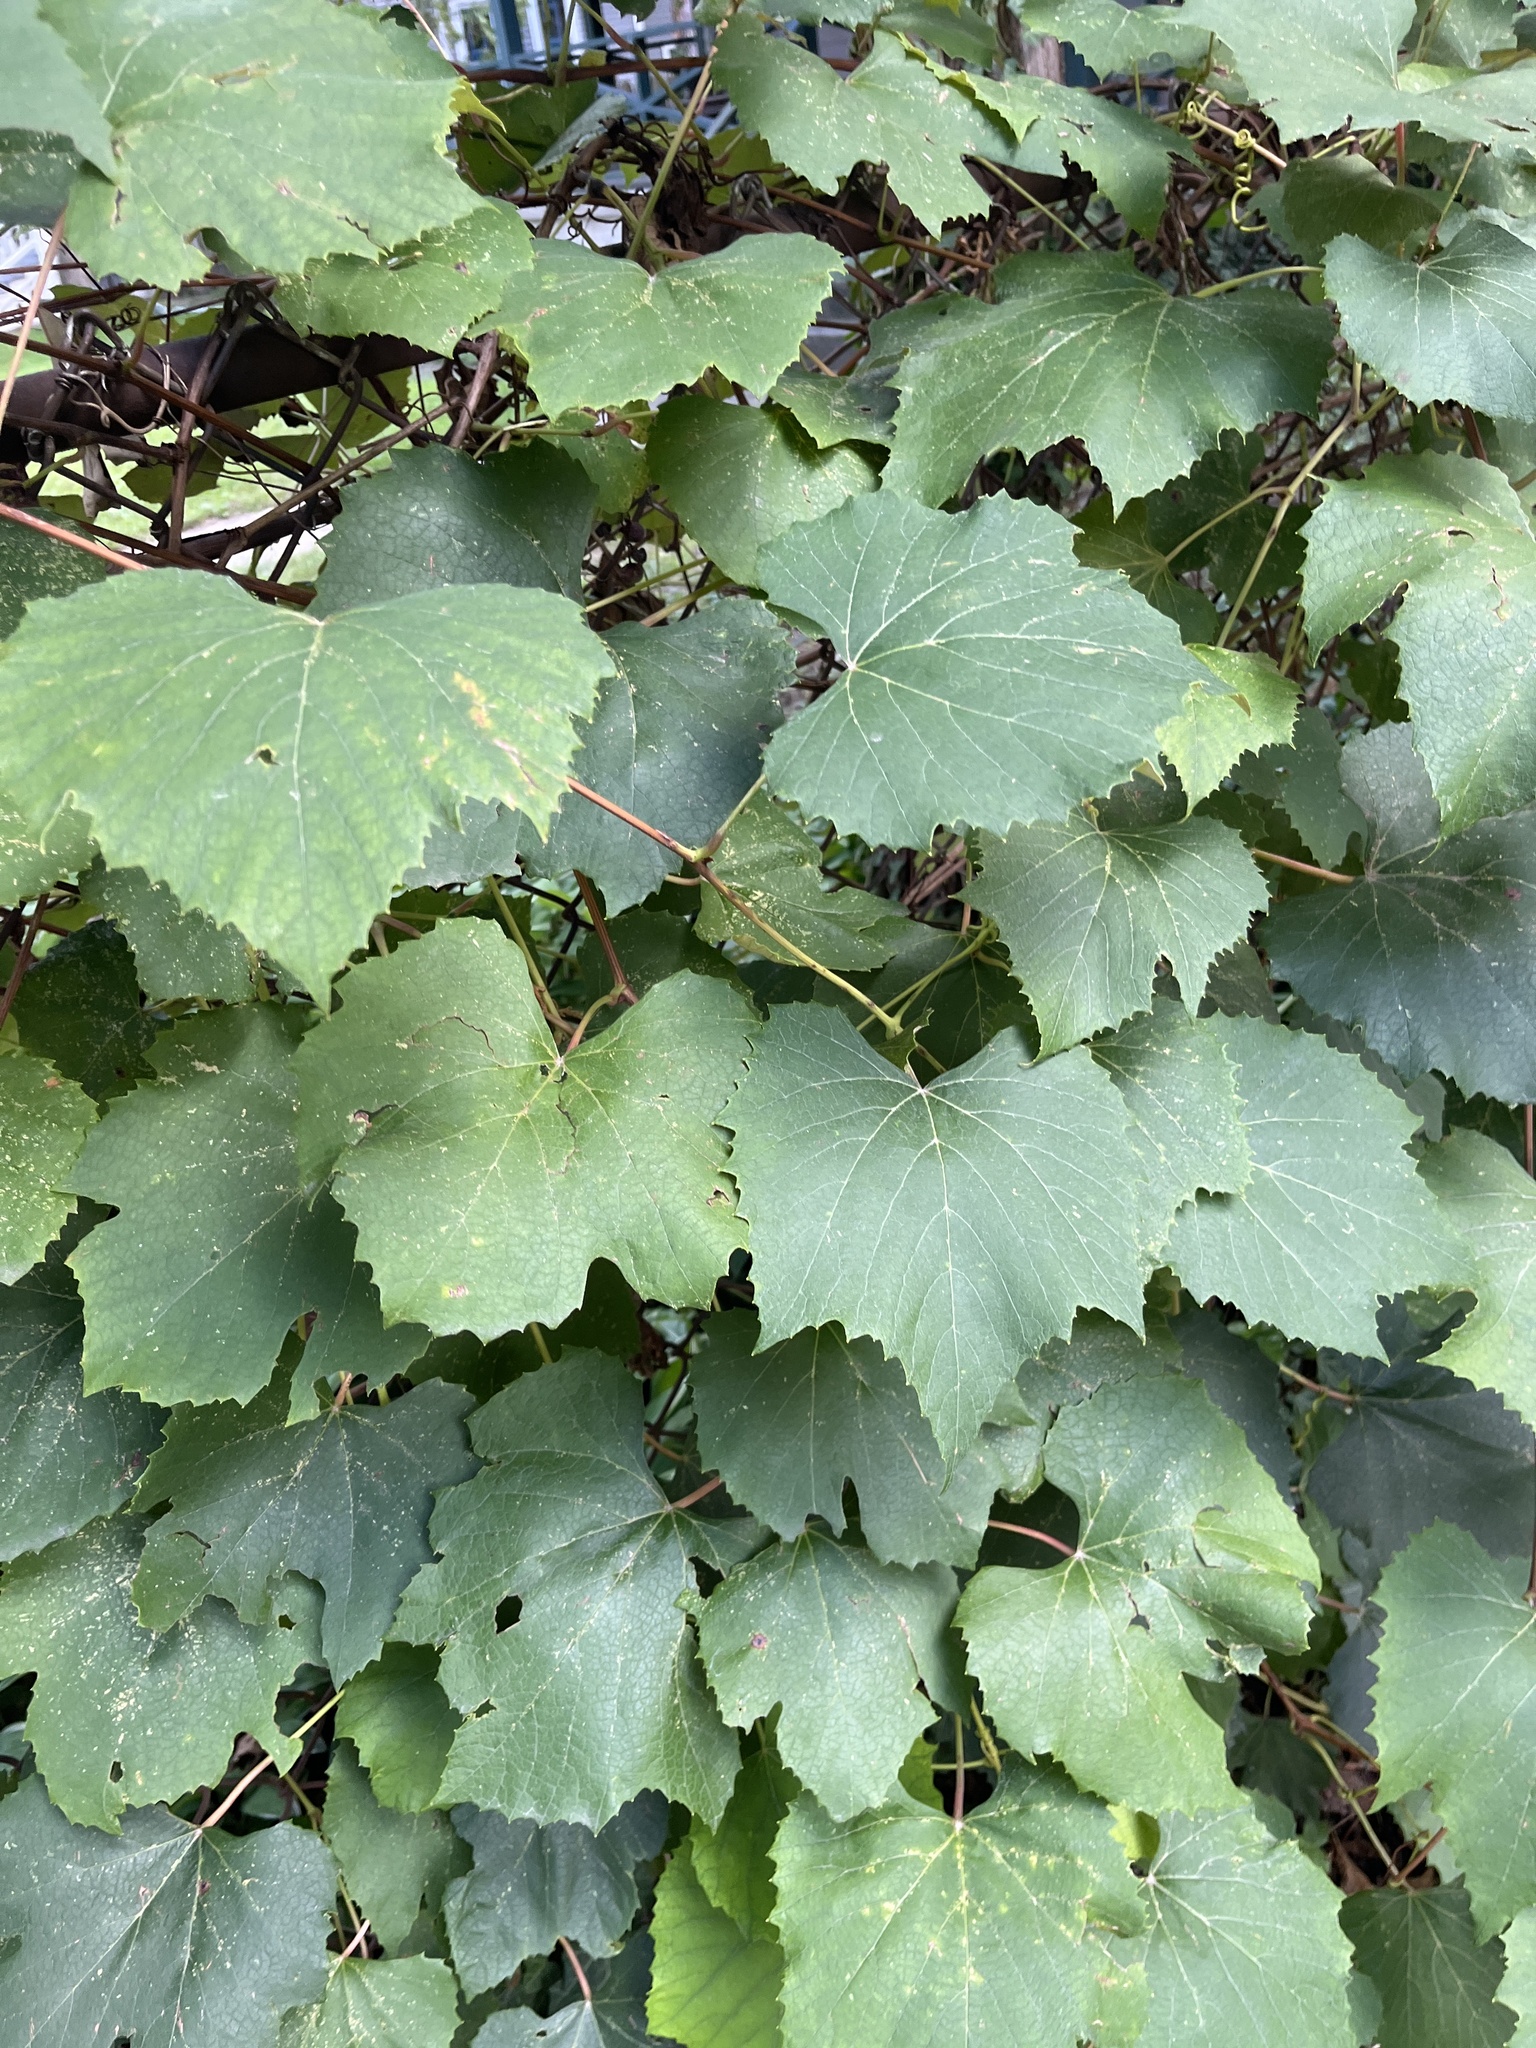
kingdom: Plantae
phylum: Tracheophyta
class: Magnoliopsida
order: Vitales
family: Vitaceae
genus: Vitis
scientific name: Vitis aestivalis
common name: Pigeon grape
